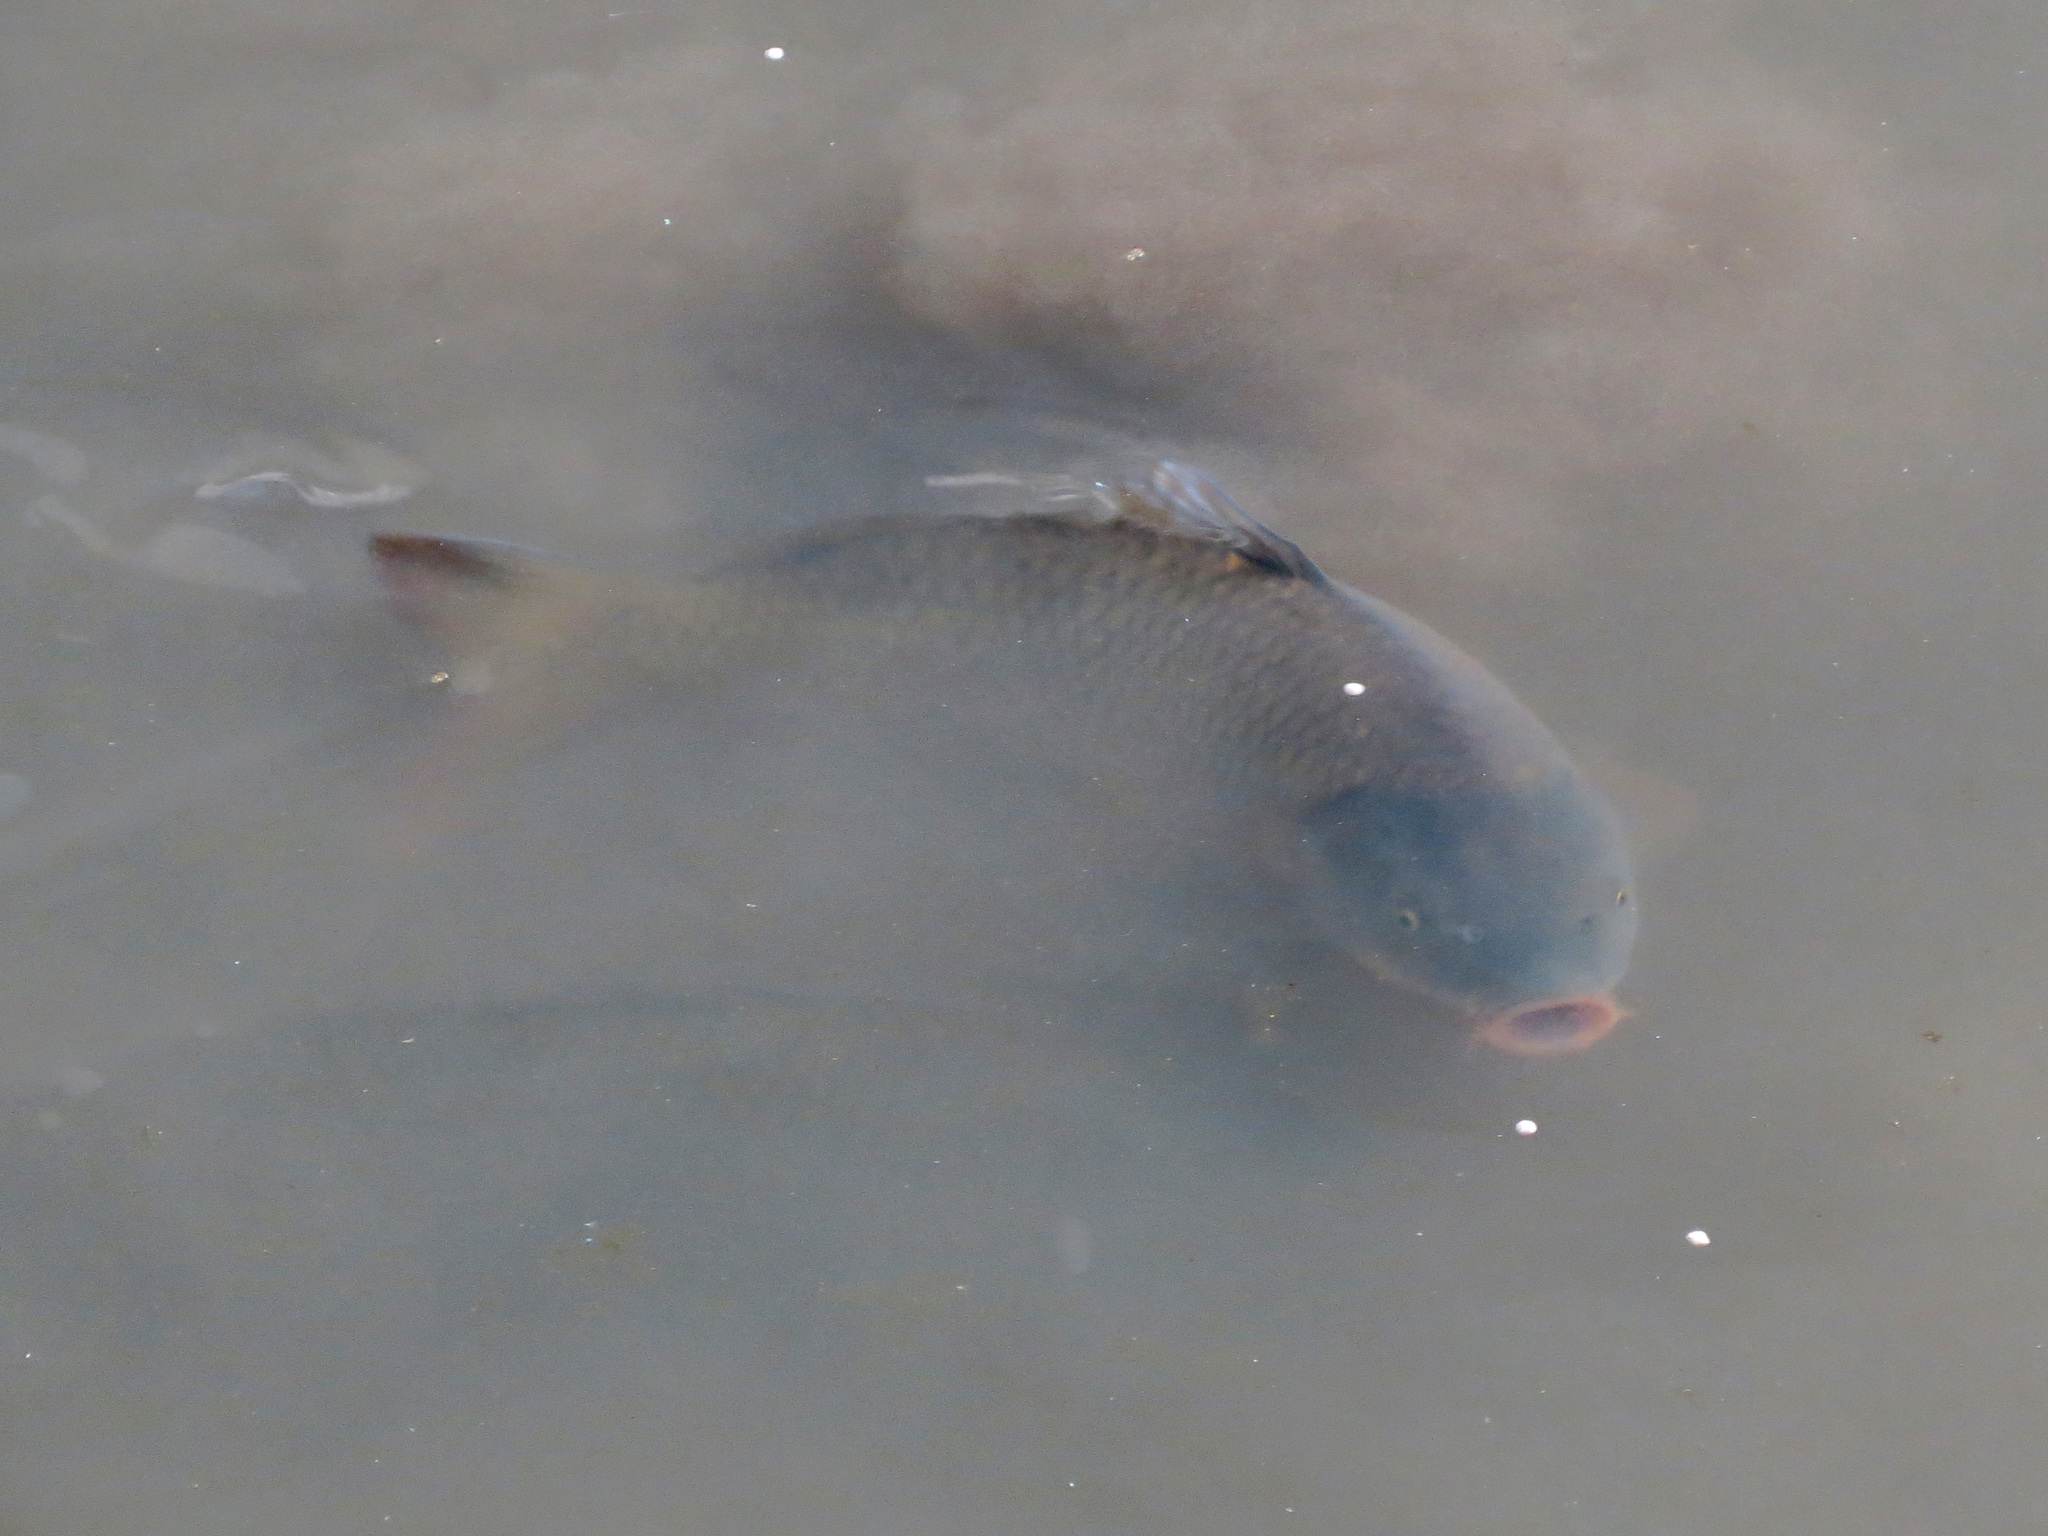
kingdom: Animalia
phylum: Chordata
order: Cypriniformes
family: Cyprinidae
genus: Cyprinus
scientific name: Cyprinus carpio
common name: Common carp
